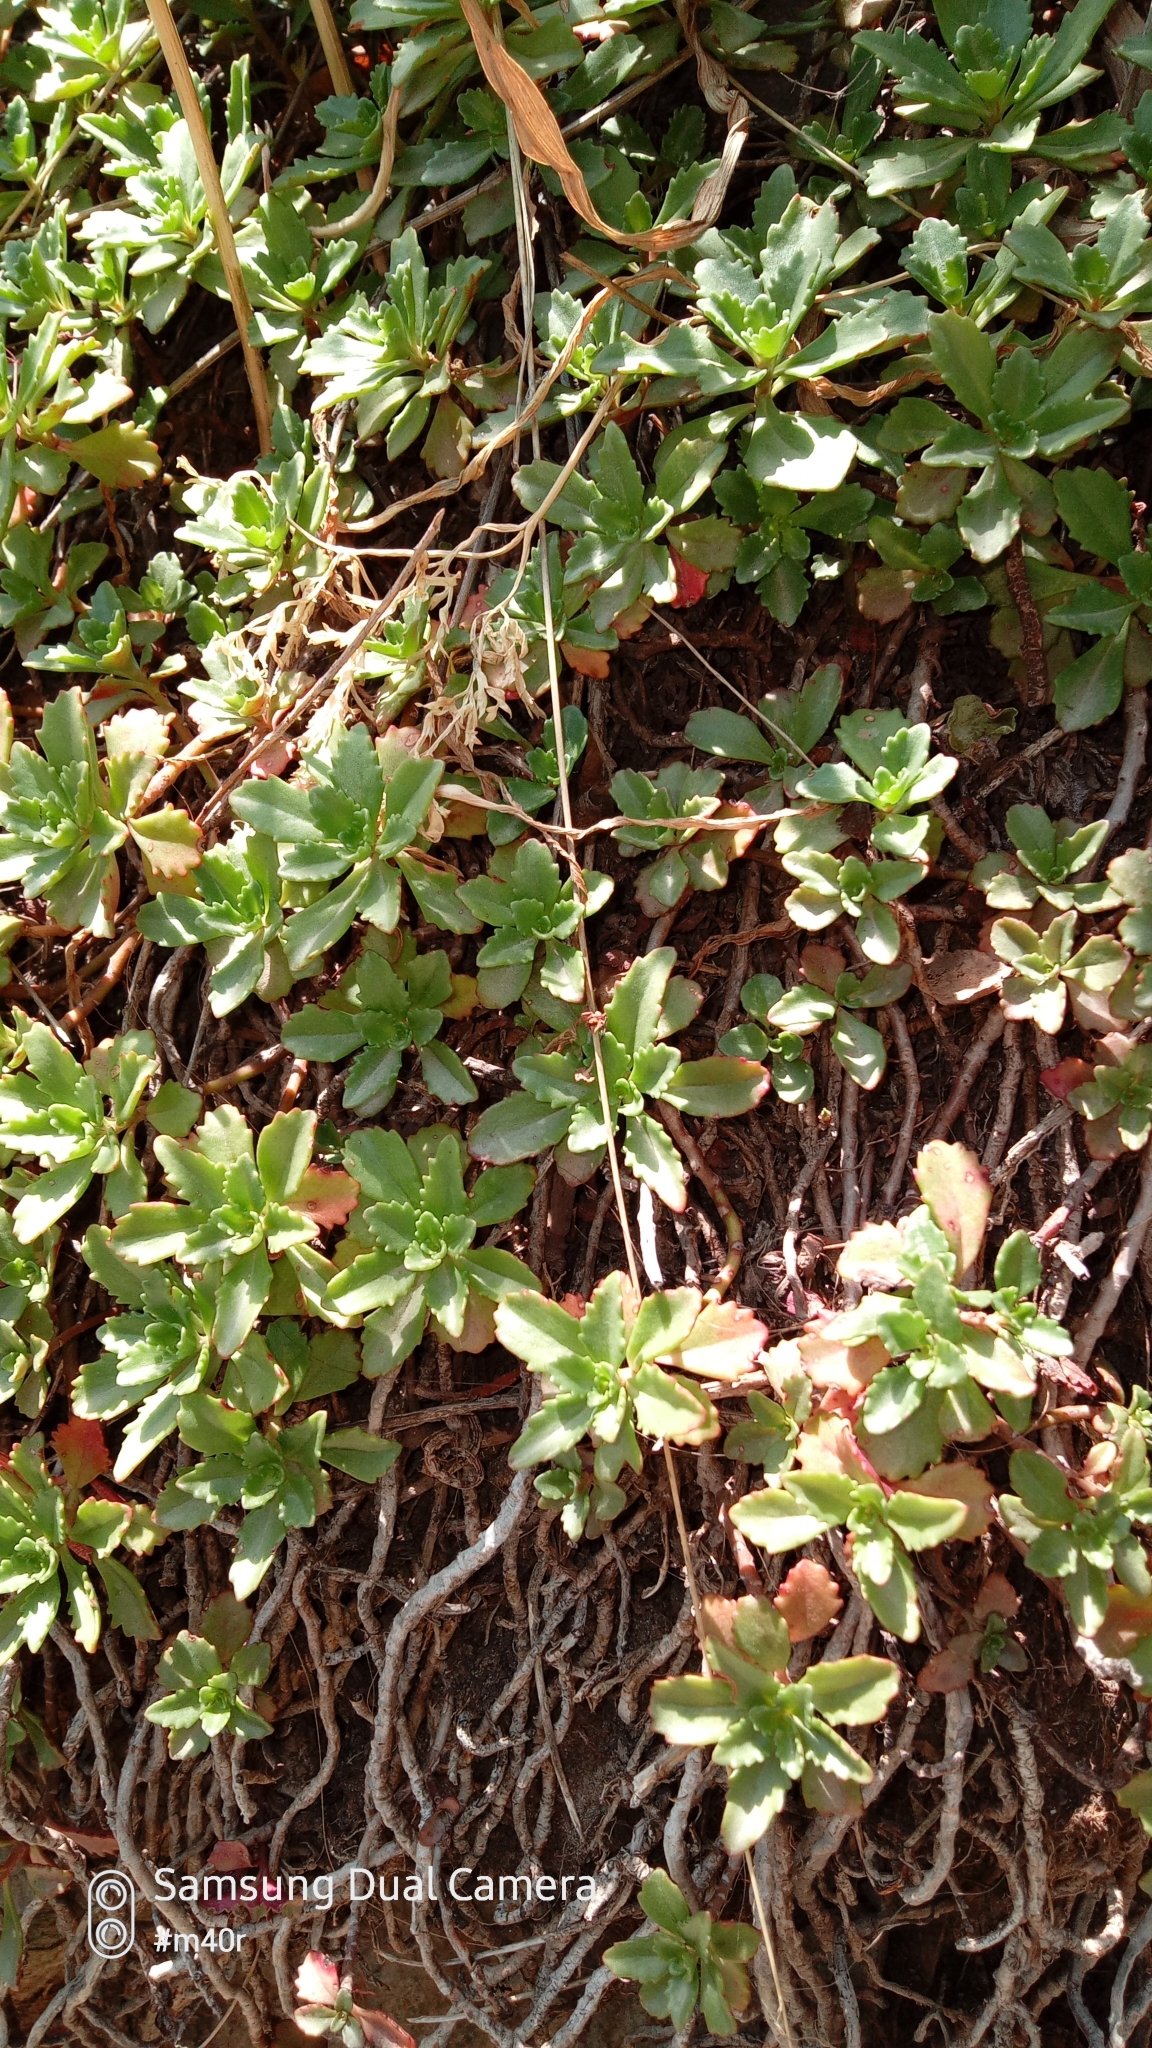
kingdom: Plantae
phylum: Tracheophyta
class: Magnoliopsida
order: Saxifragales
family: Crassulaceae
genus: Phedimus
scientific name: Phedimus hybridus
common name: Hybrid stonecrop
